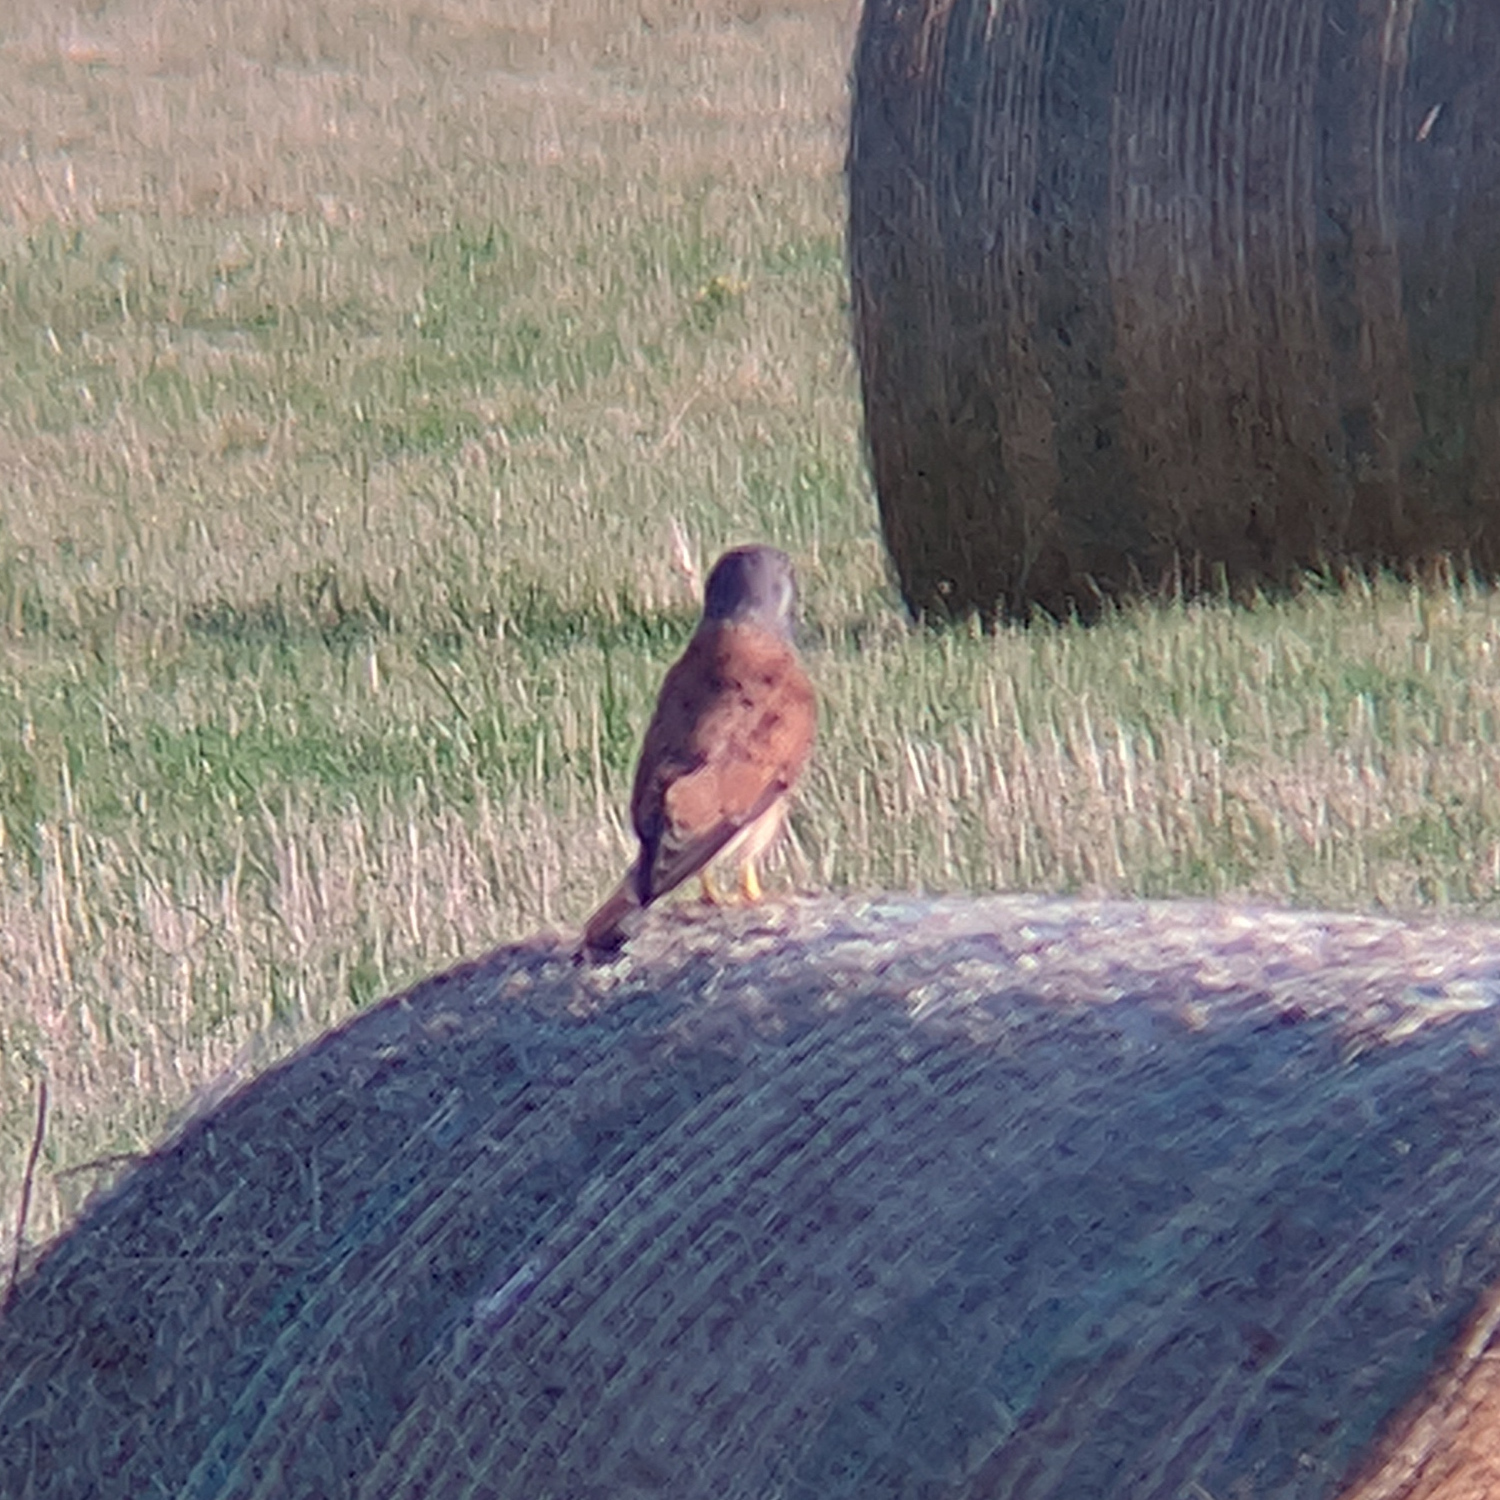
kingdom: Animalia
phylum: Chordata
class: Aves
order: Falconiformes
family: Falconidae
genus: Falco
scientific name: Falco tinnunculus
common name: Common kestrel
